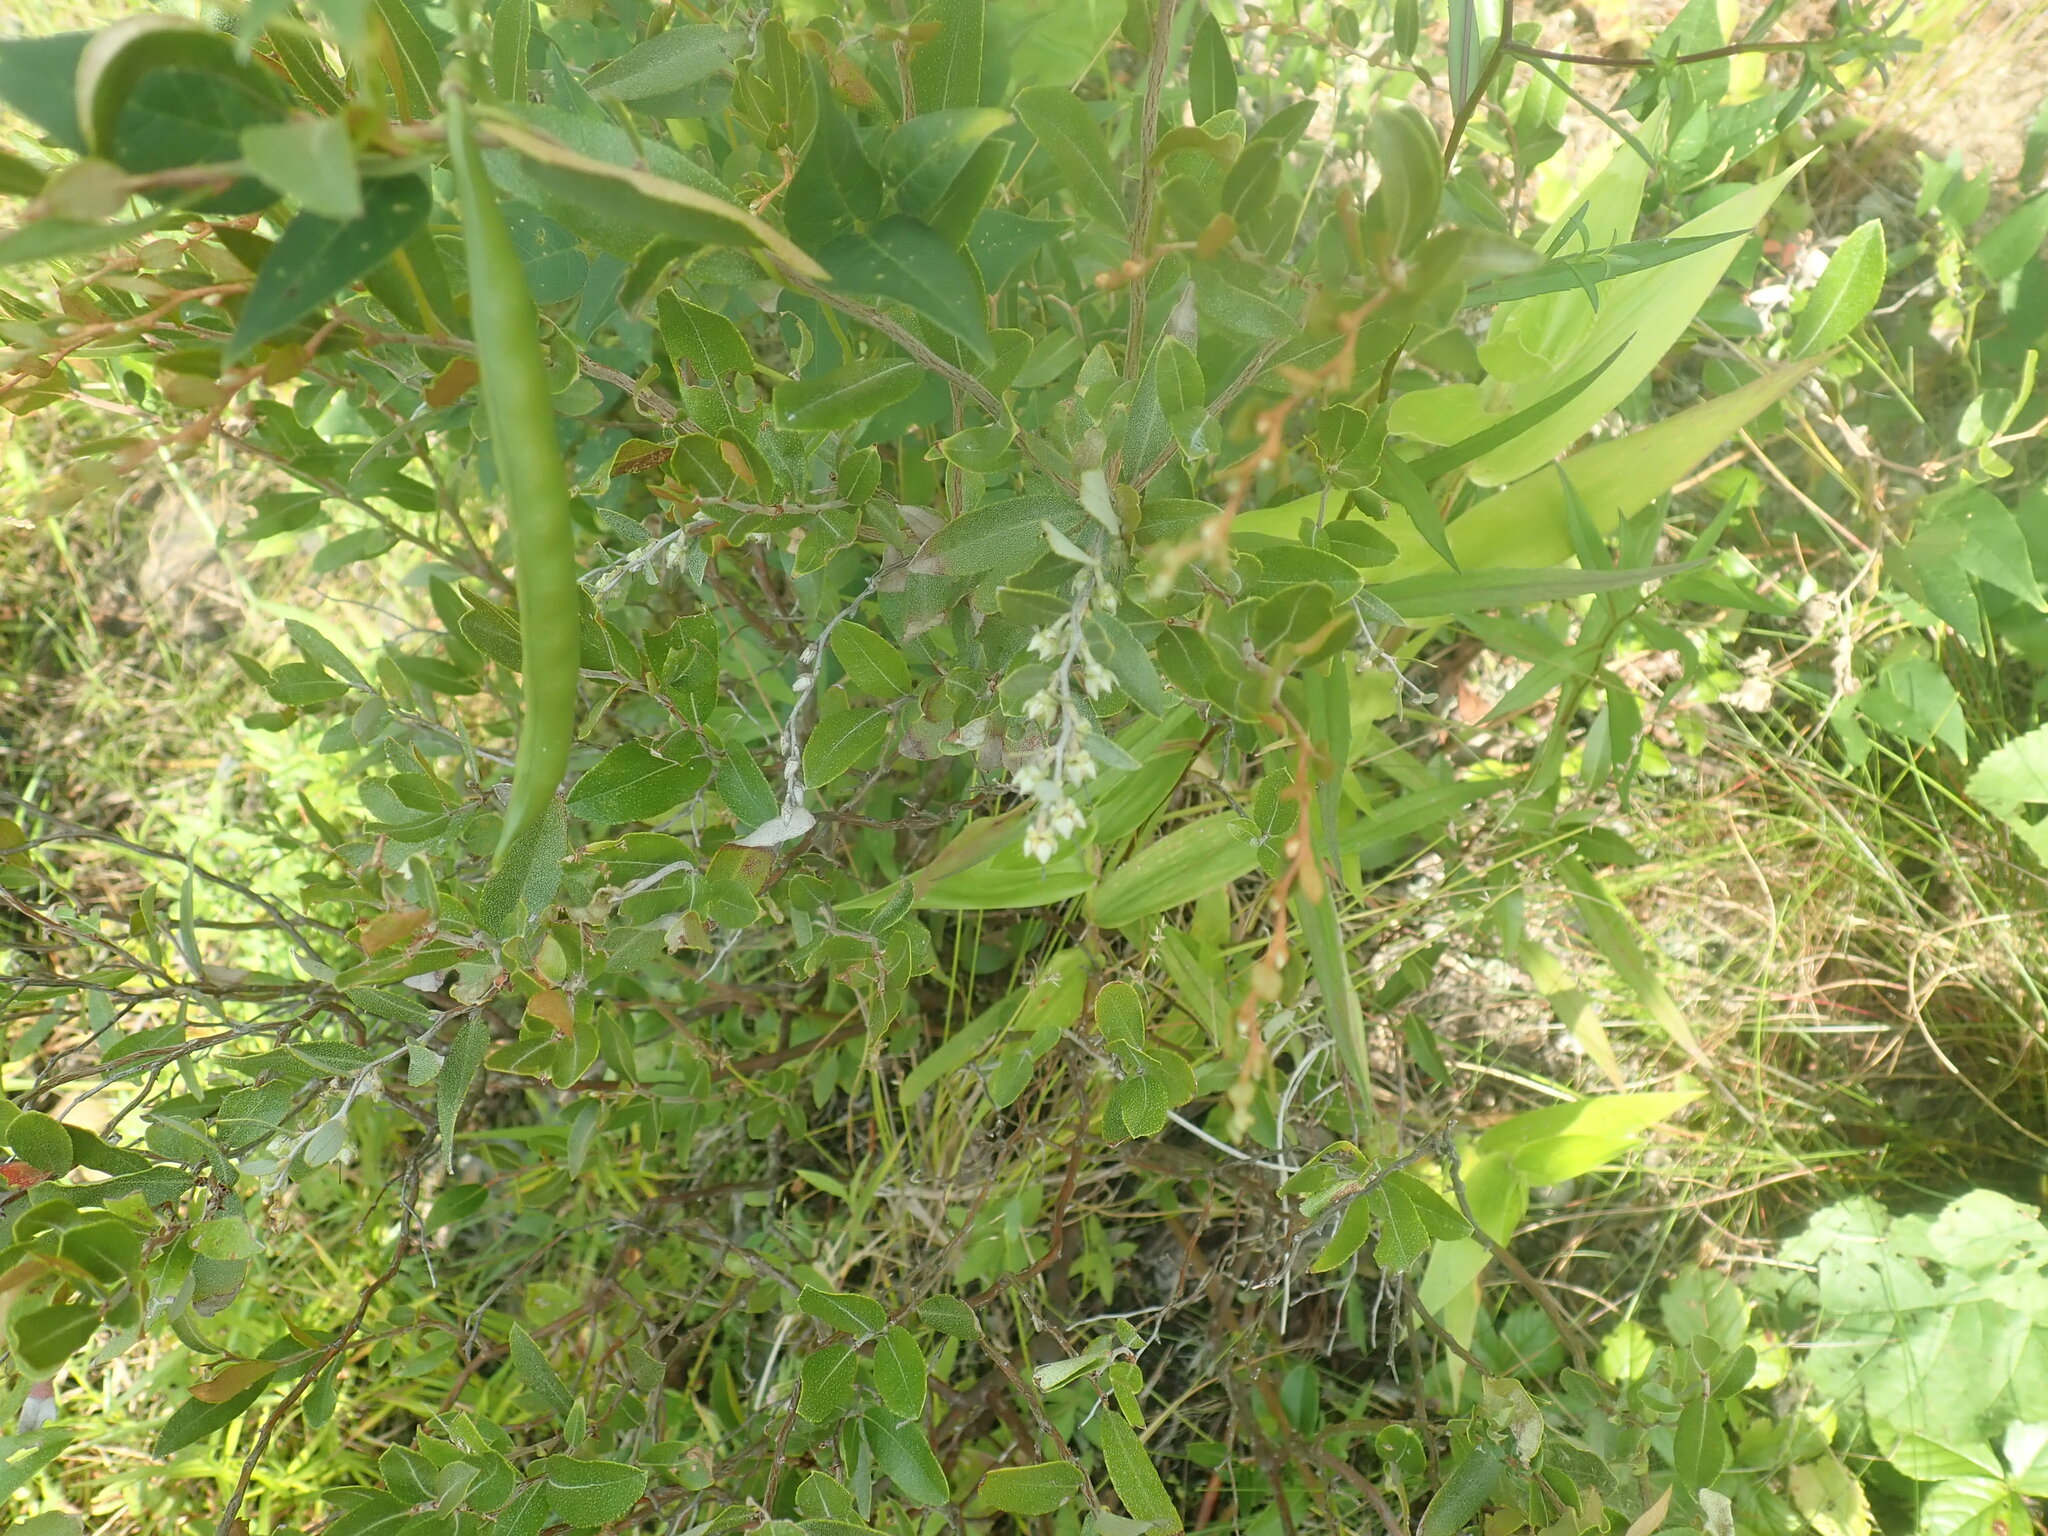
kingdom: Plantae
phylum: Tracheophyta
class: Magnoliopsida
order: Ericales
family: Ericaceae
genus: Chamaedaphne
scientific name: Chamaedaphne calyculata
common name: Leatherleaf
